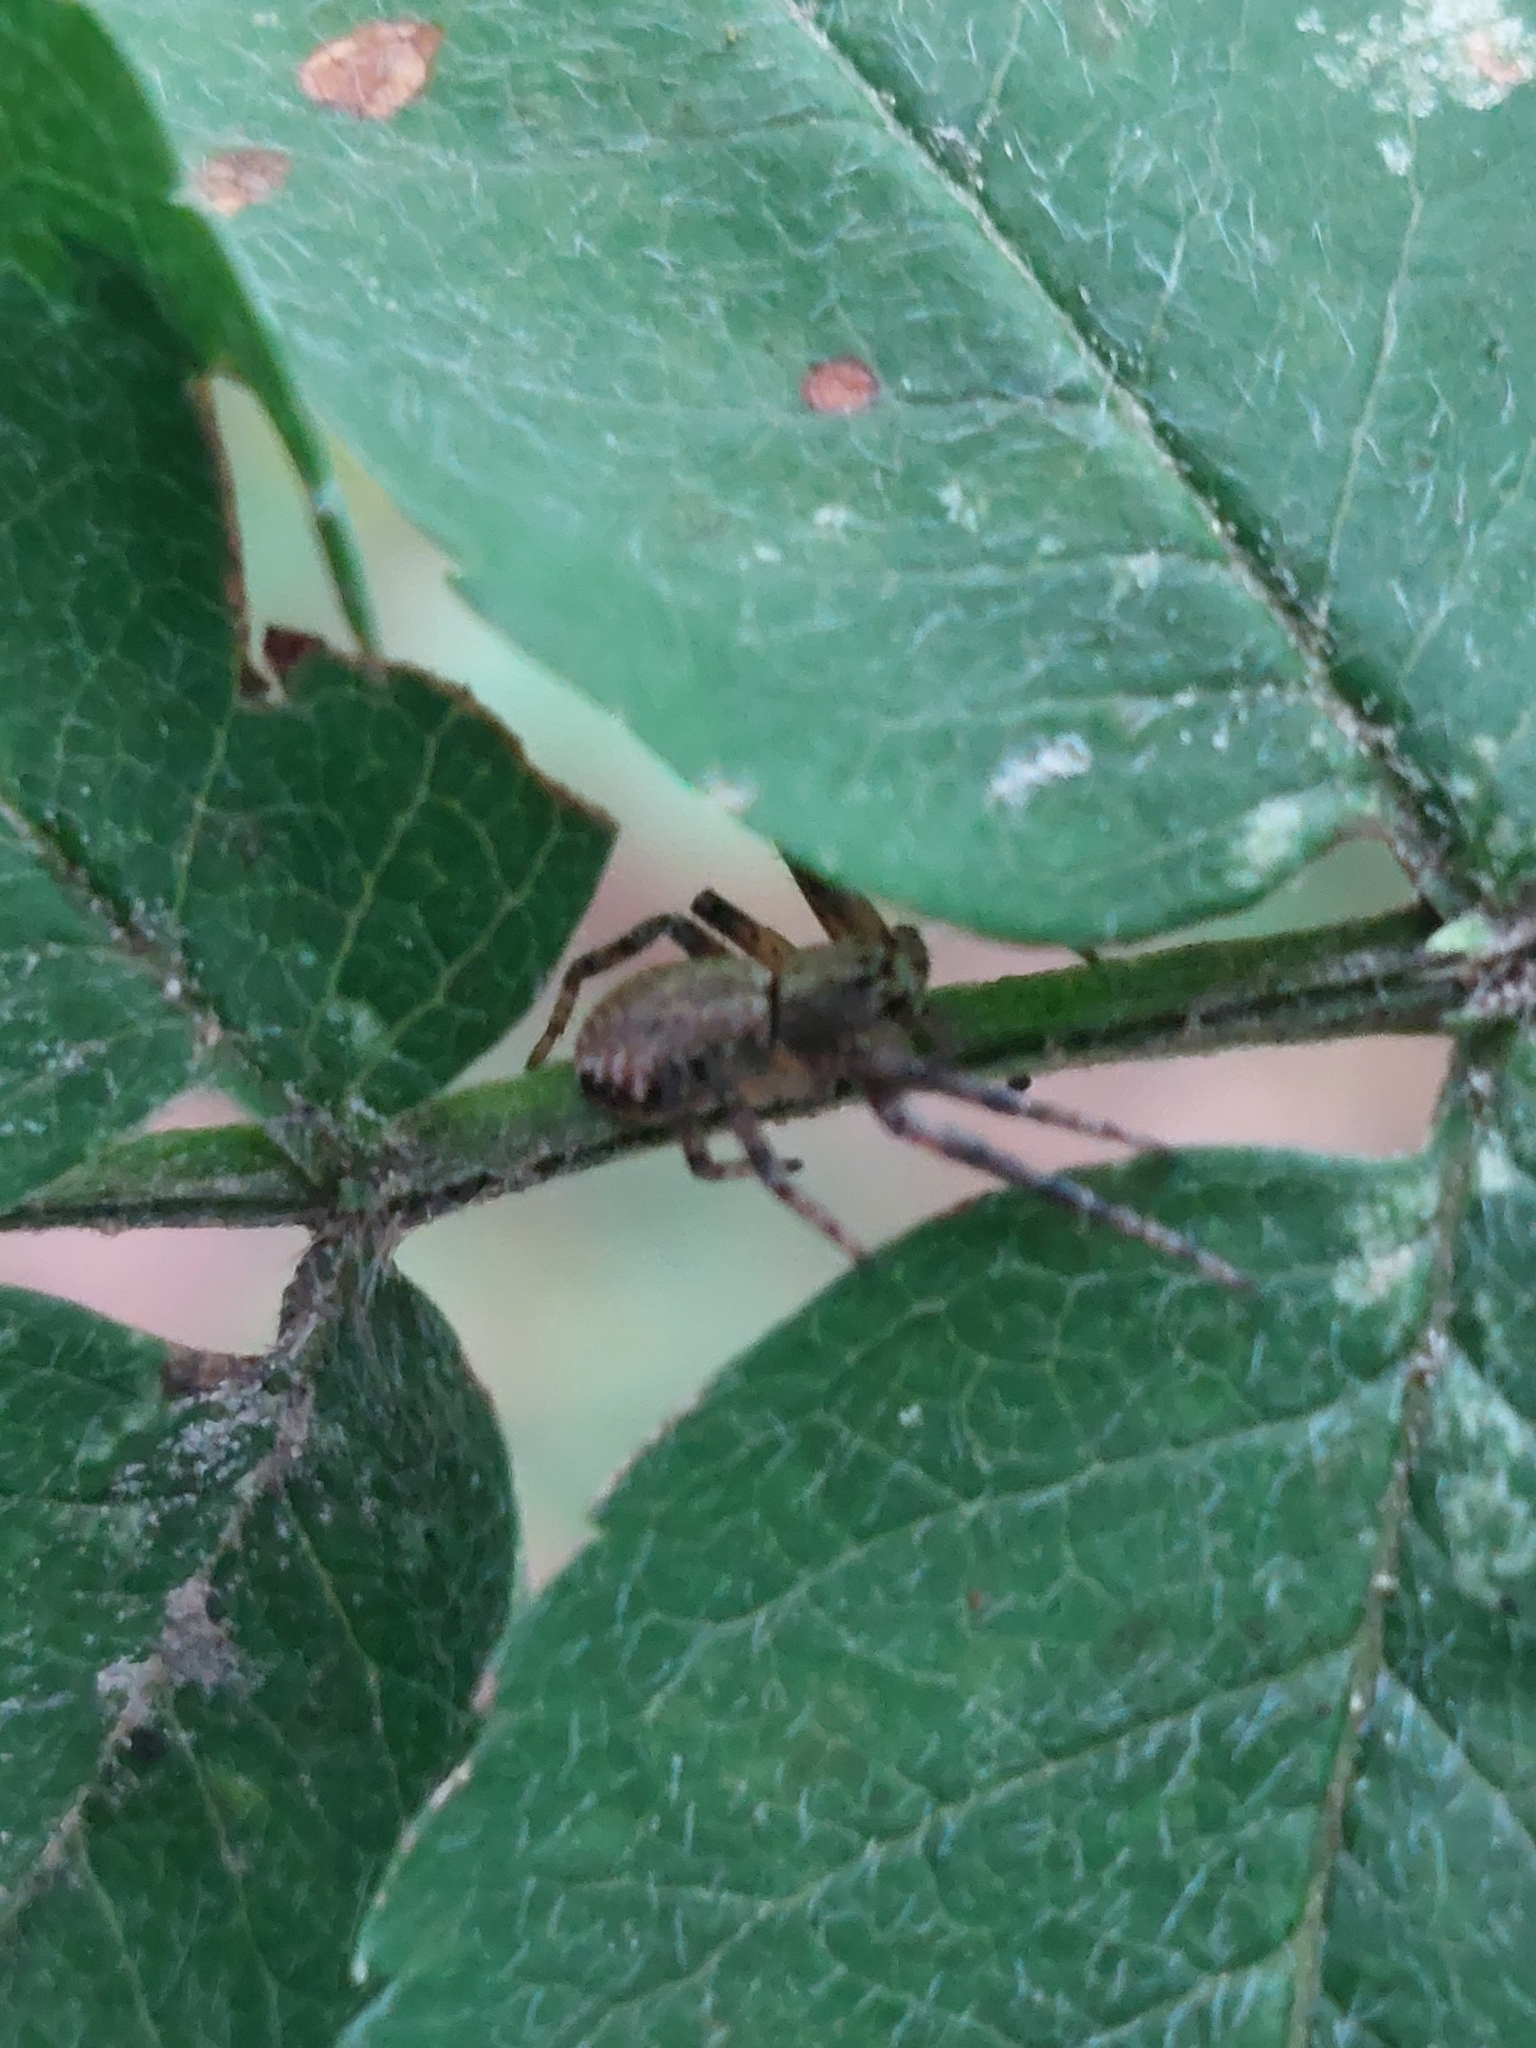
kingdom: Animalia
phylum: Arthropoda
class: Arachnida
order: Araneae
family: Philodromidae
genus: Philodromus
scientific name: Philodromus
